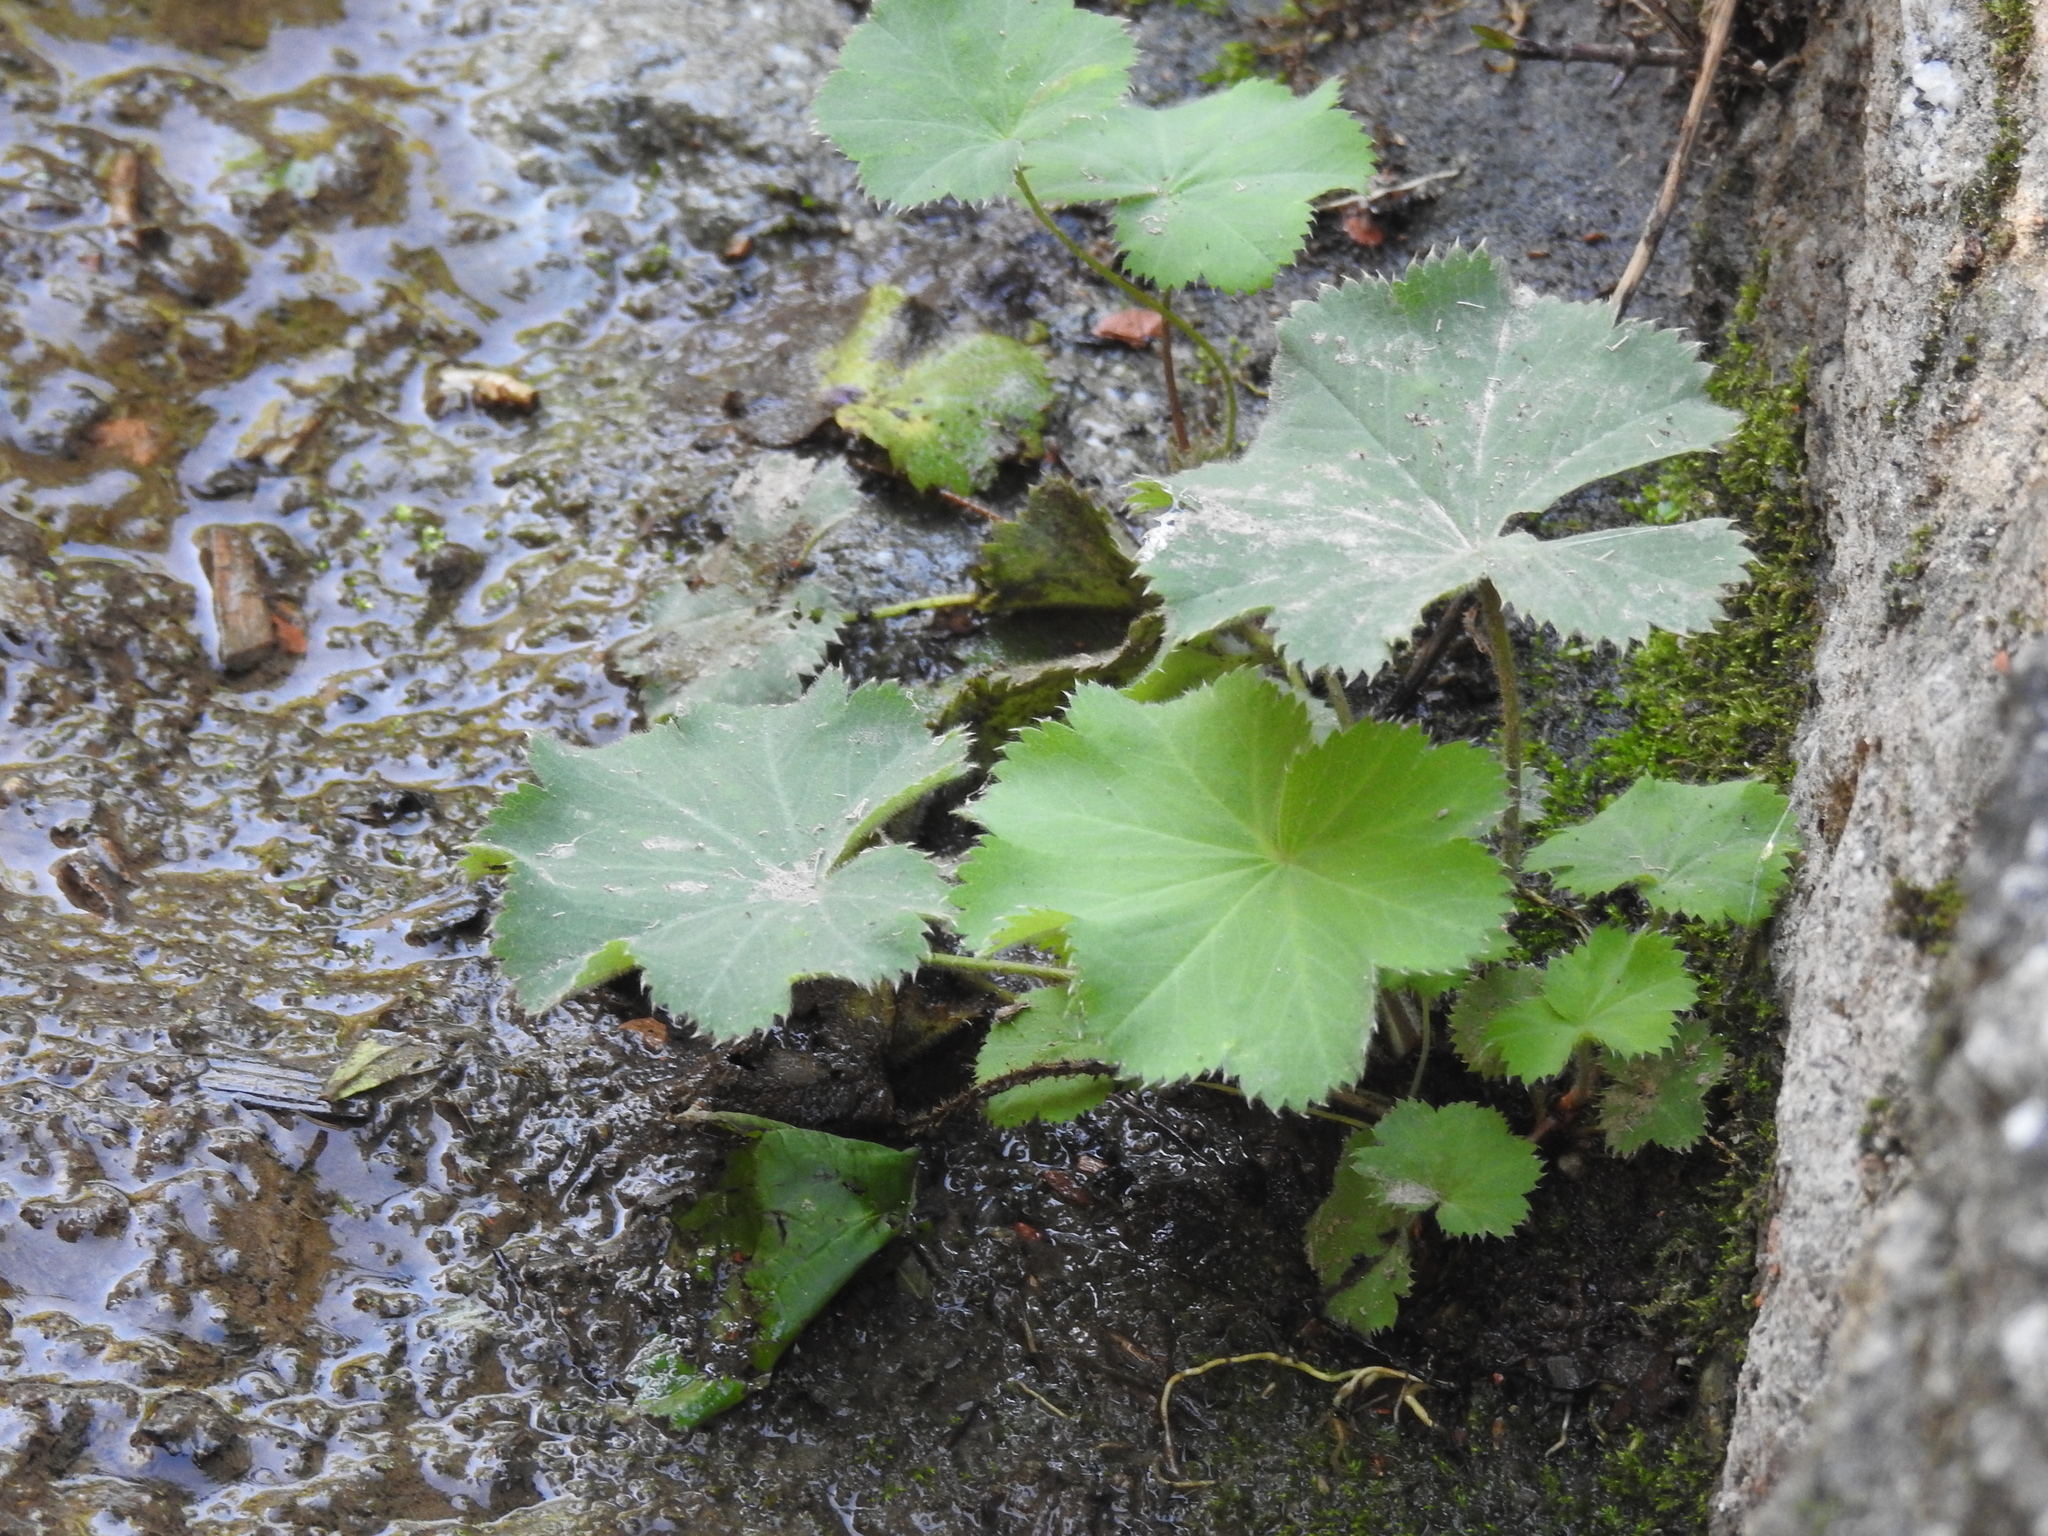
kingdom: Plantae
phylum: Tracheophyta
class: Magnoliopsida
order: Rosales
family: Rosaceae
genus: Alchemilla
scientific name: Alchemilla mollis
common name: Lady's-mantle
